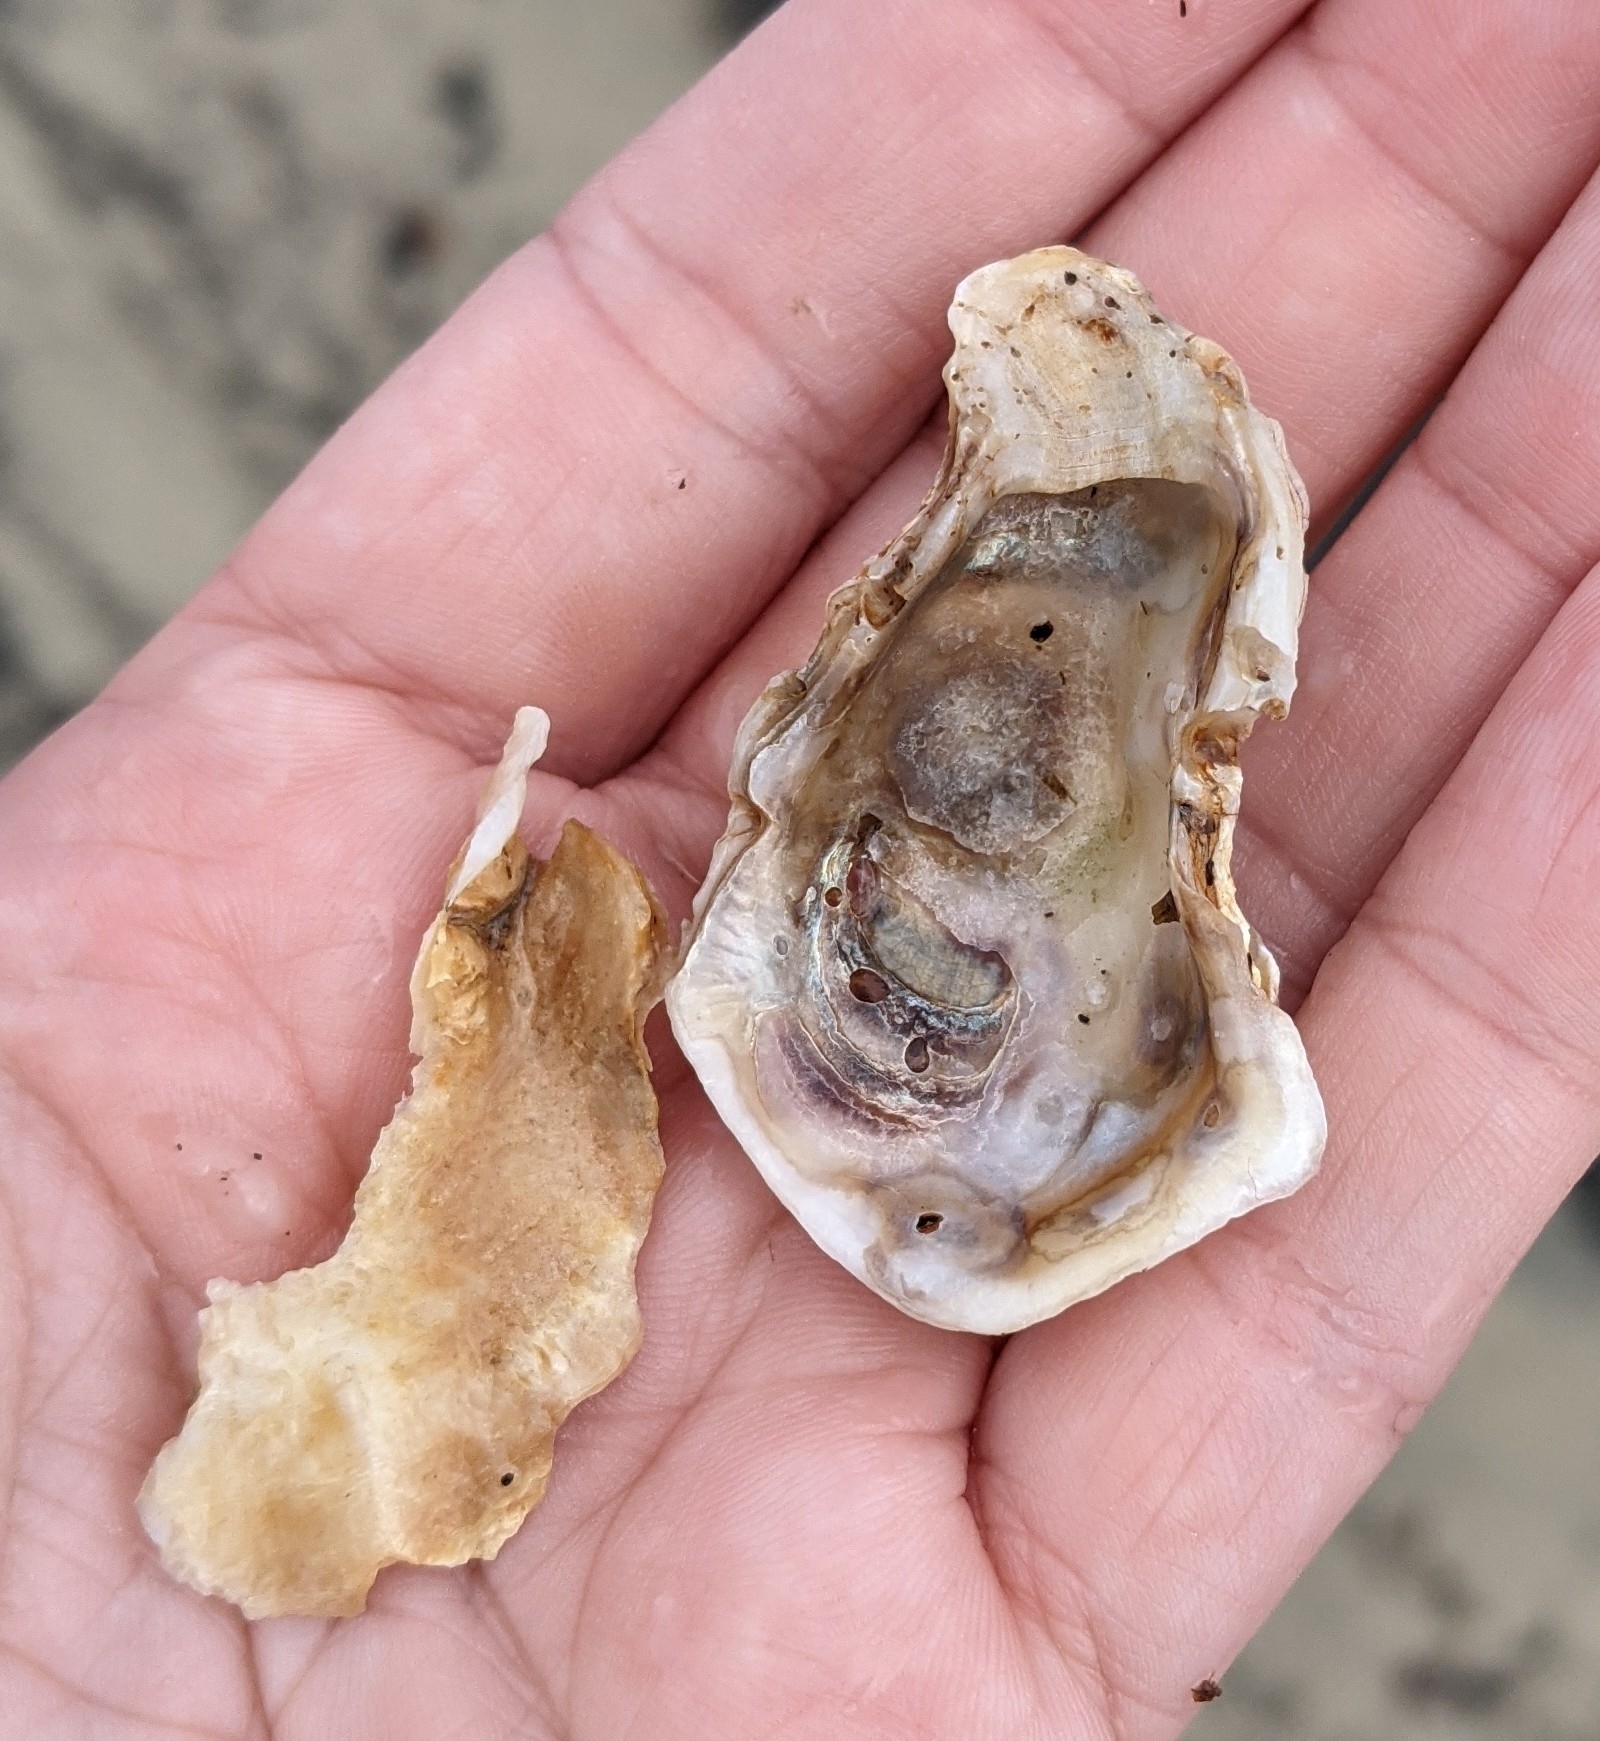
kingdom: Animalia
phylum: Mollusca
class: Bivalvia
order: Ostreida
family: Ostreidae
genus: Crassostrea
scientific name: Crassostrea virginica
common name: American oyster
